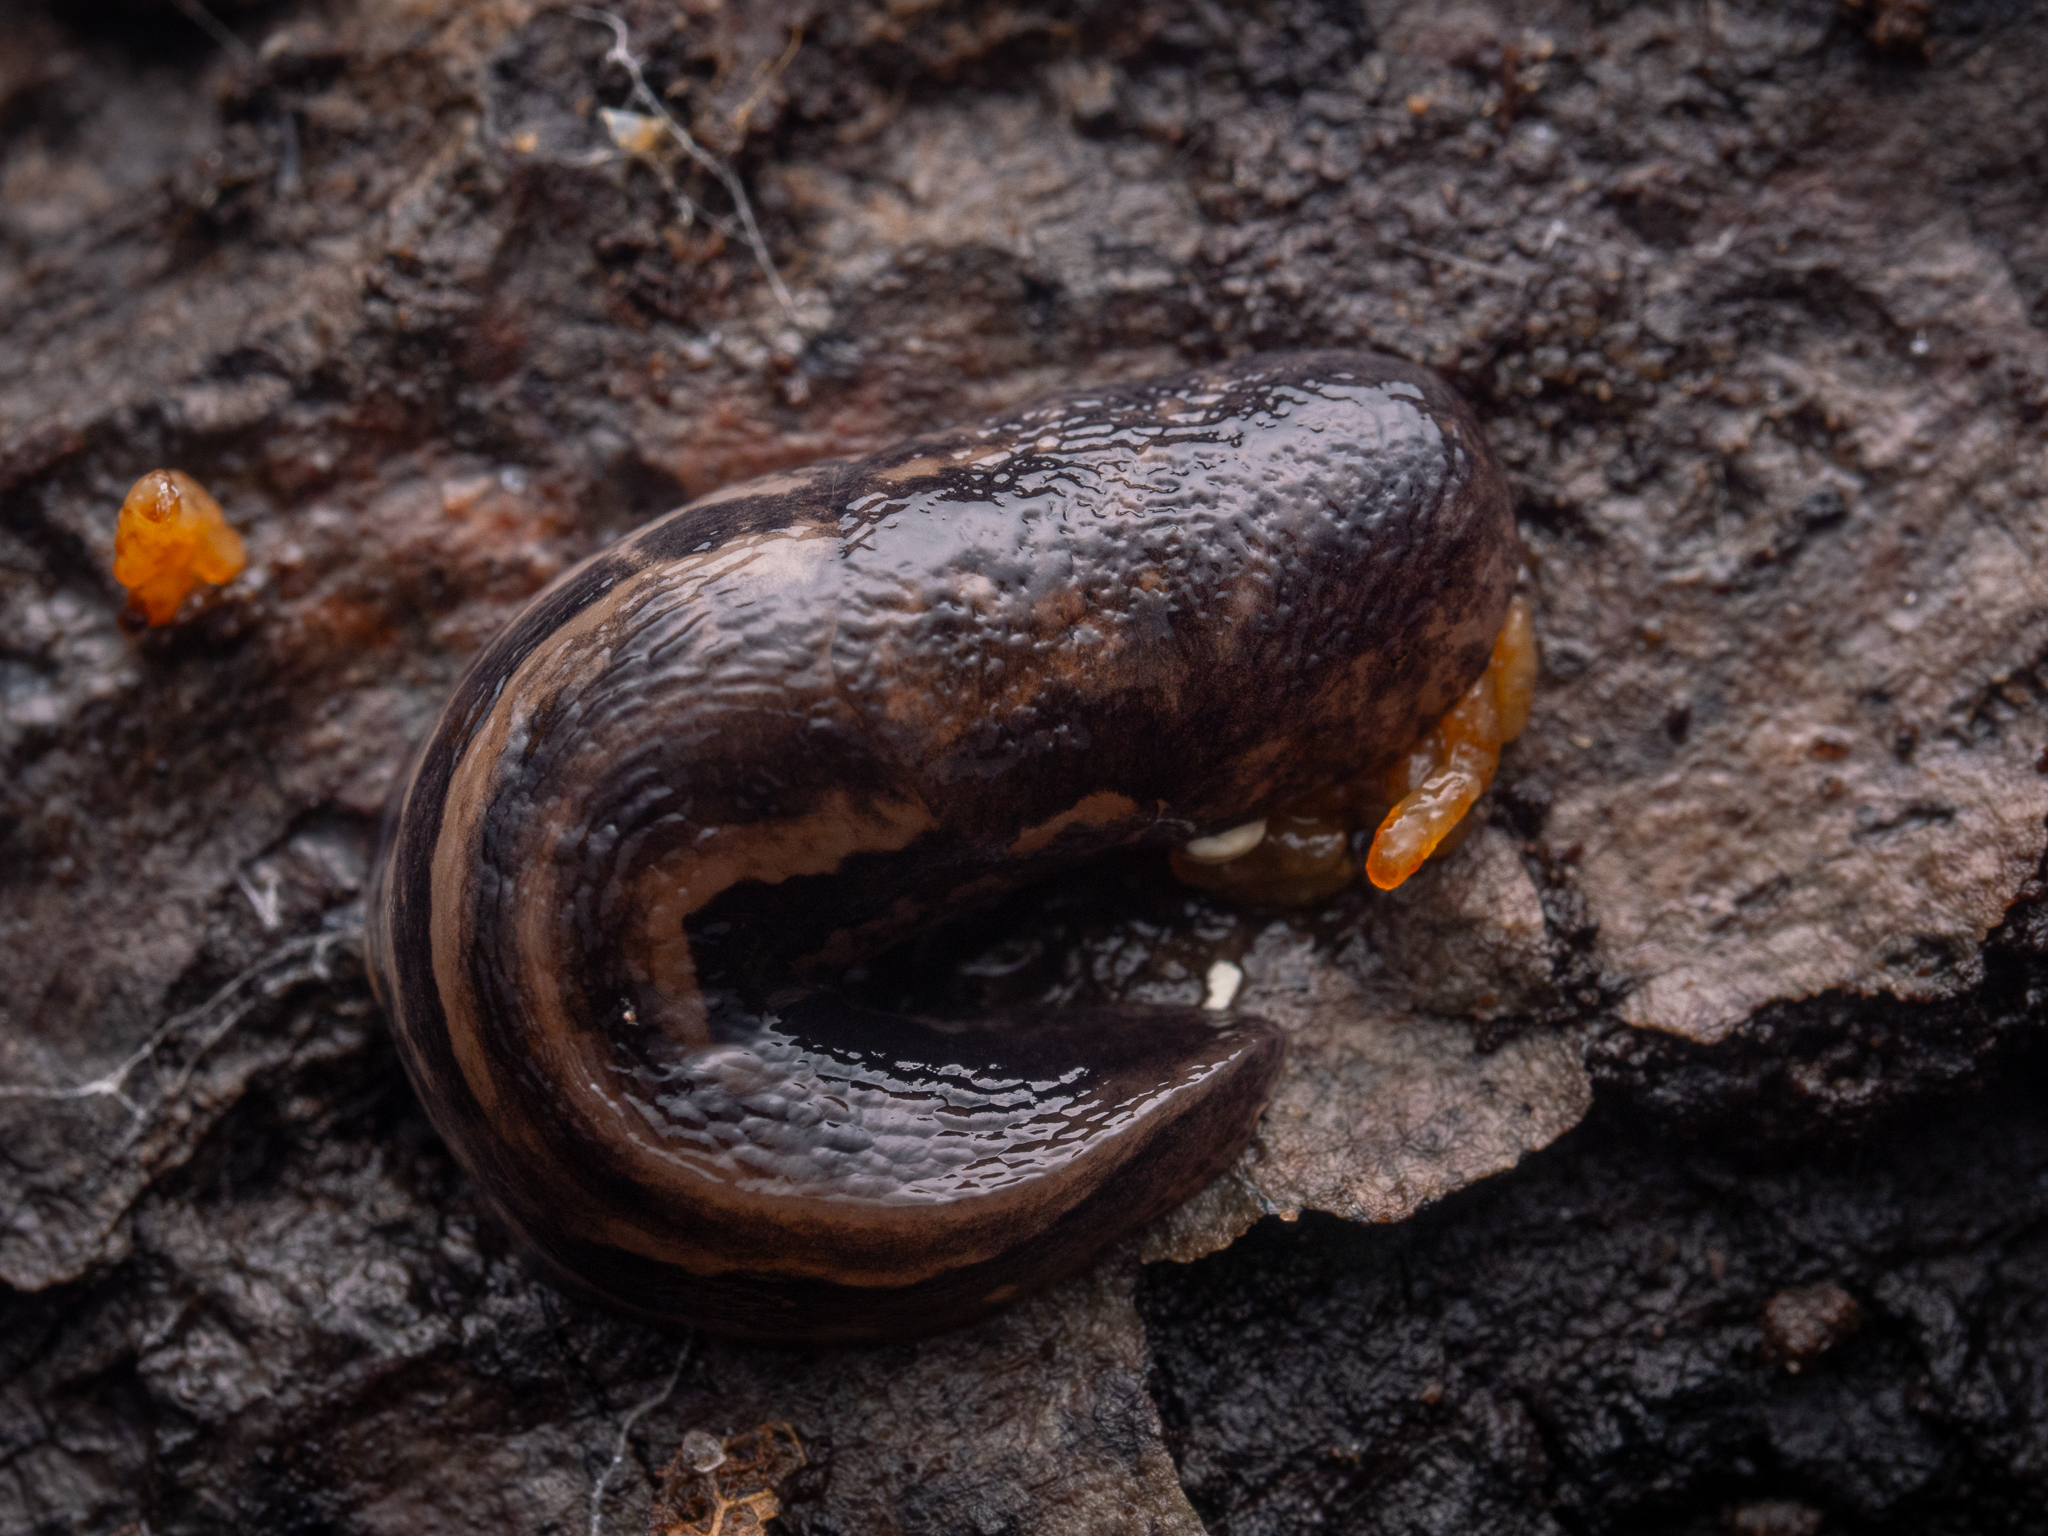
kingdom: Animalia
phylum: Mollusca
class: Gastropoda
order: Stylommatophora
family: Limacidae
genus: Limax
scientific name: Limax maximus
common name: Great grey slug
